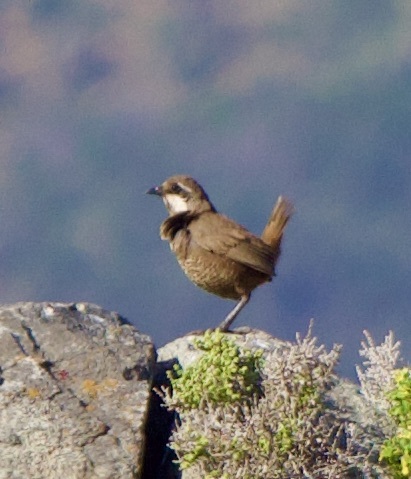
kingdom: Animalia
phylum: Chordata
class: Aves
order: Passeriformes
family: Rhinocryptidae
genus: Pteroptochos
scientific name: Pteroptochos megapodius
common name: Moustached turca
